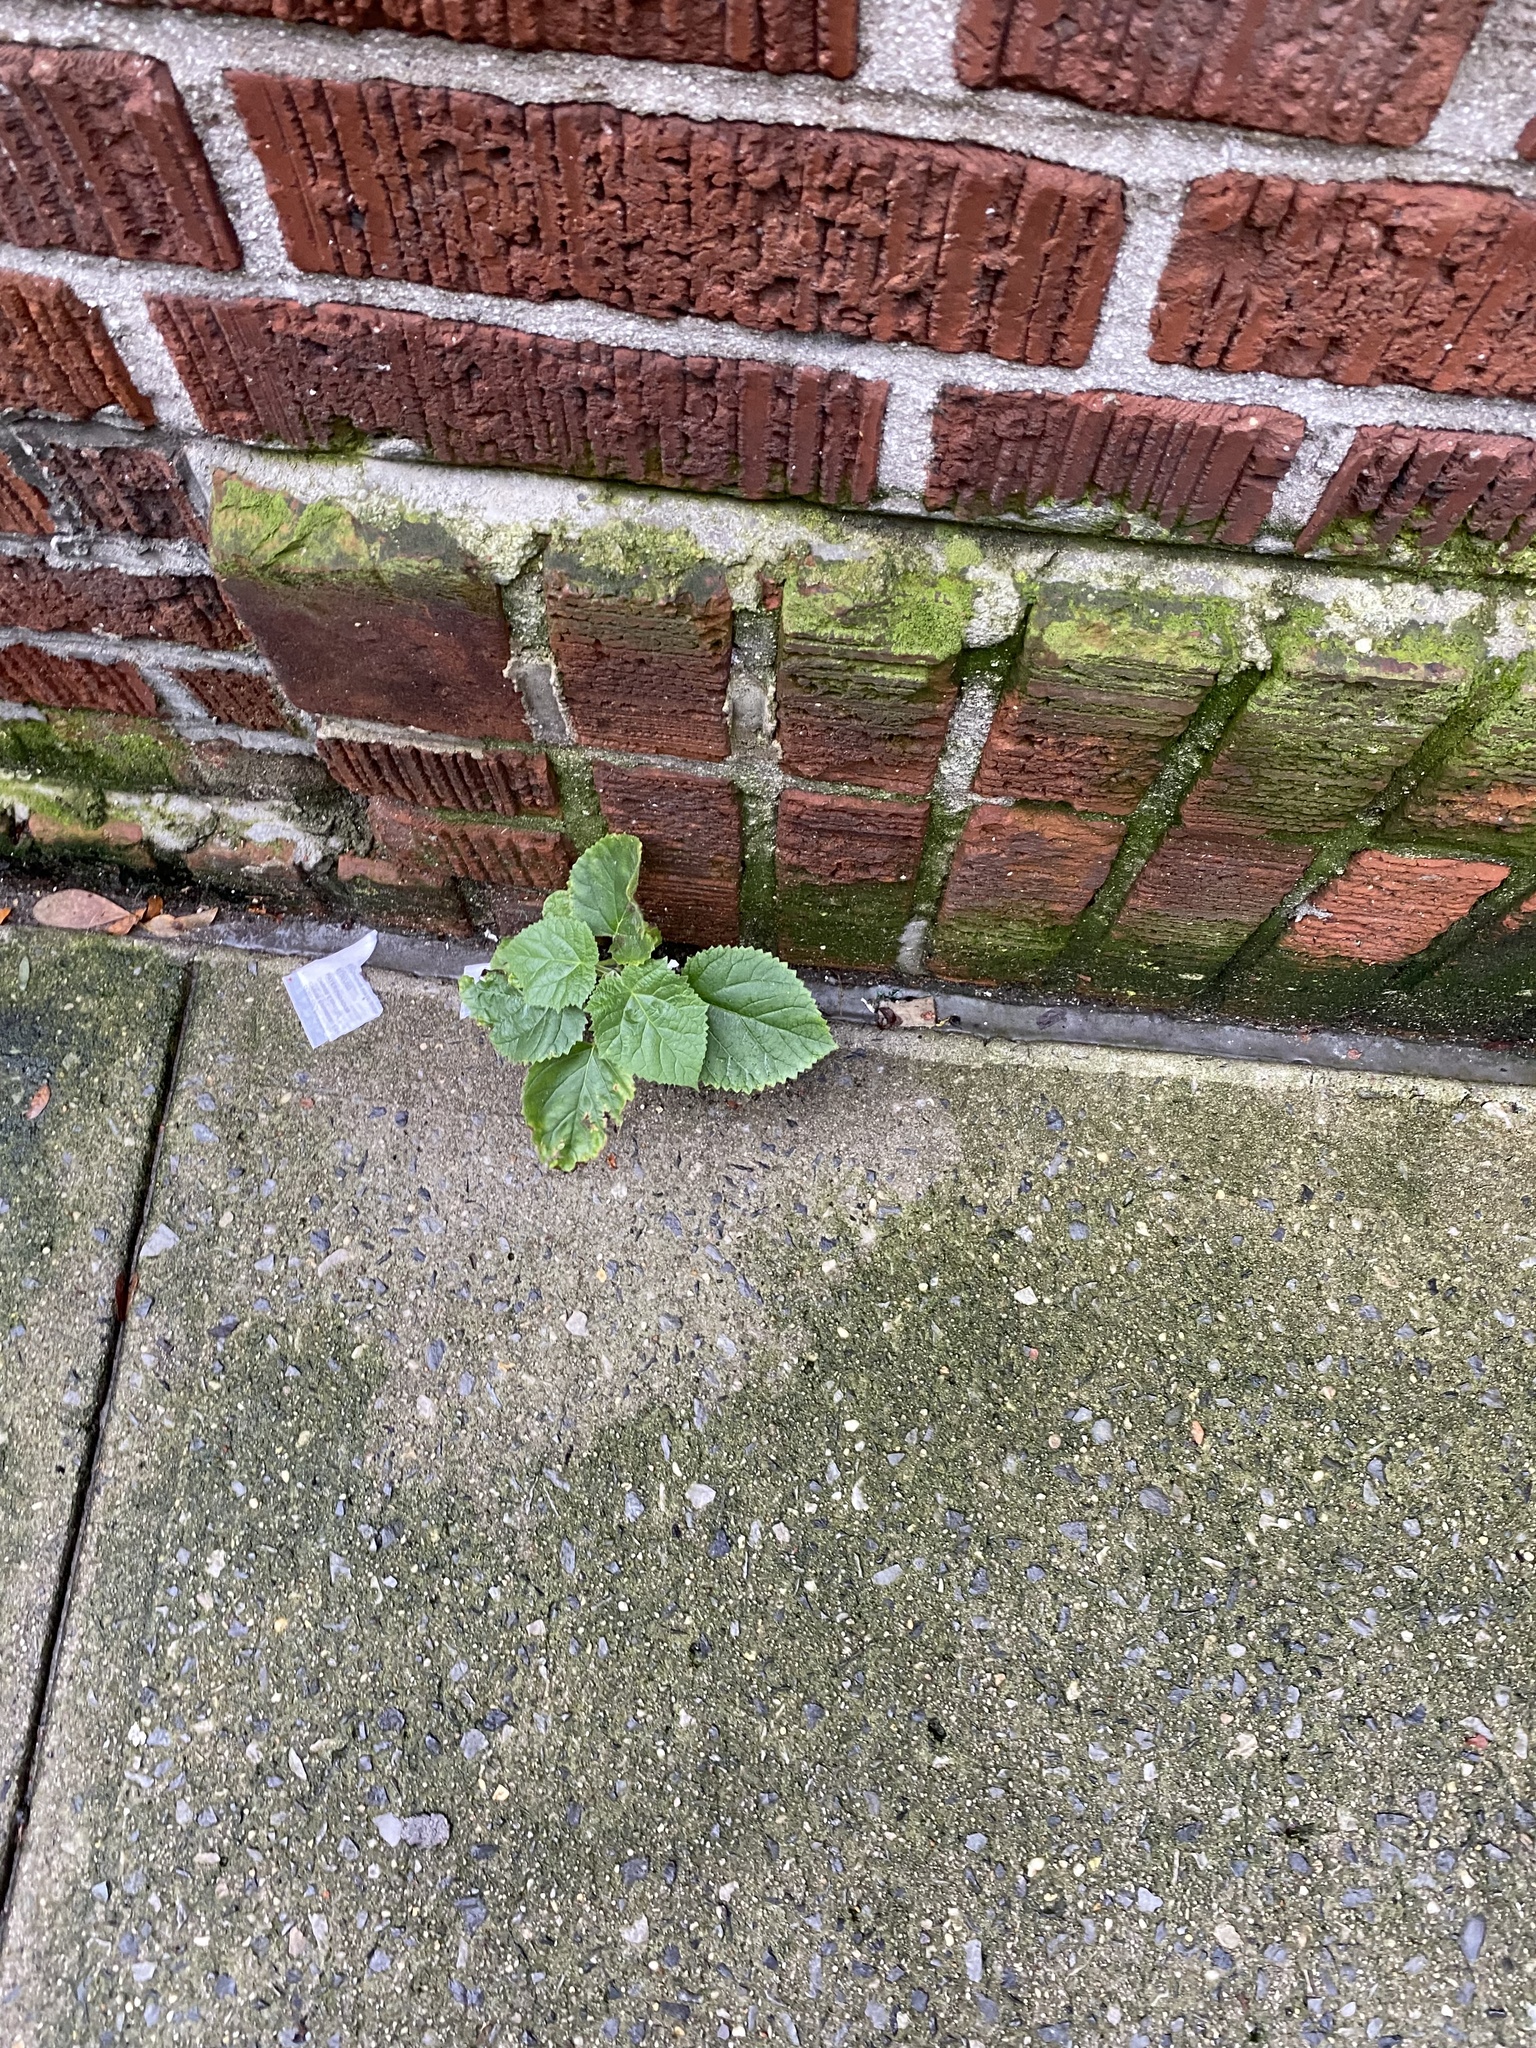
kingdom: Plantae
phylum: Tracheophyta
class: Magnoliopsida
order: Lamiales
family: Paulowniaceae
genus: Paulownia
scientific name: Paulownia tomentosa
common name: Foxglove-tree
